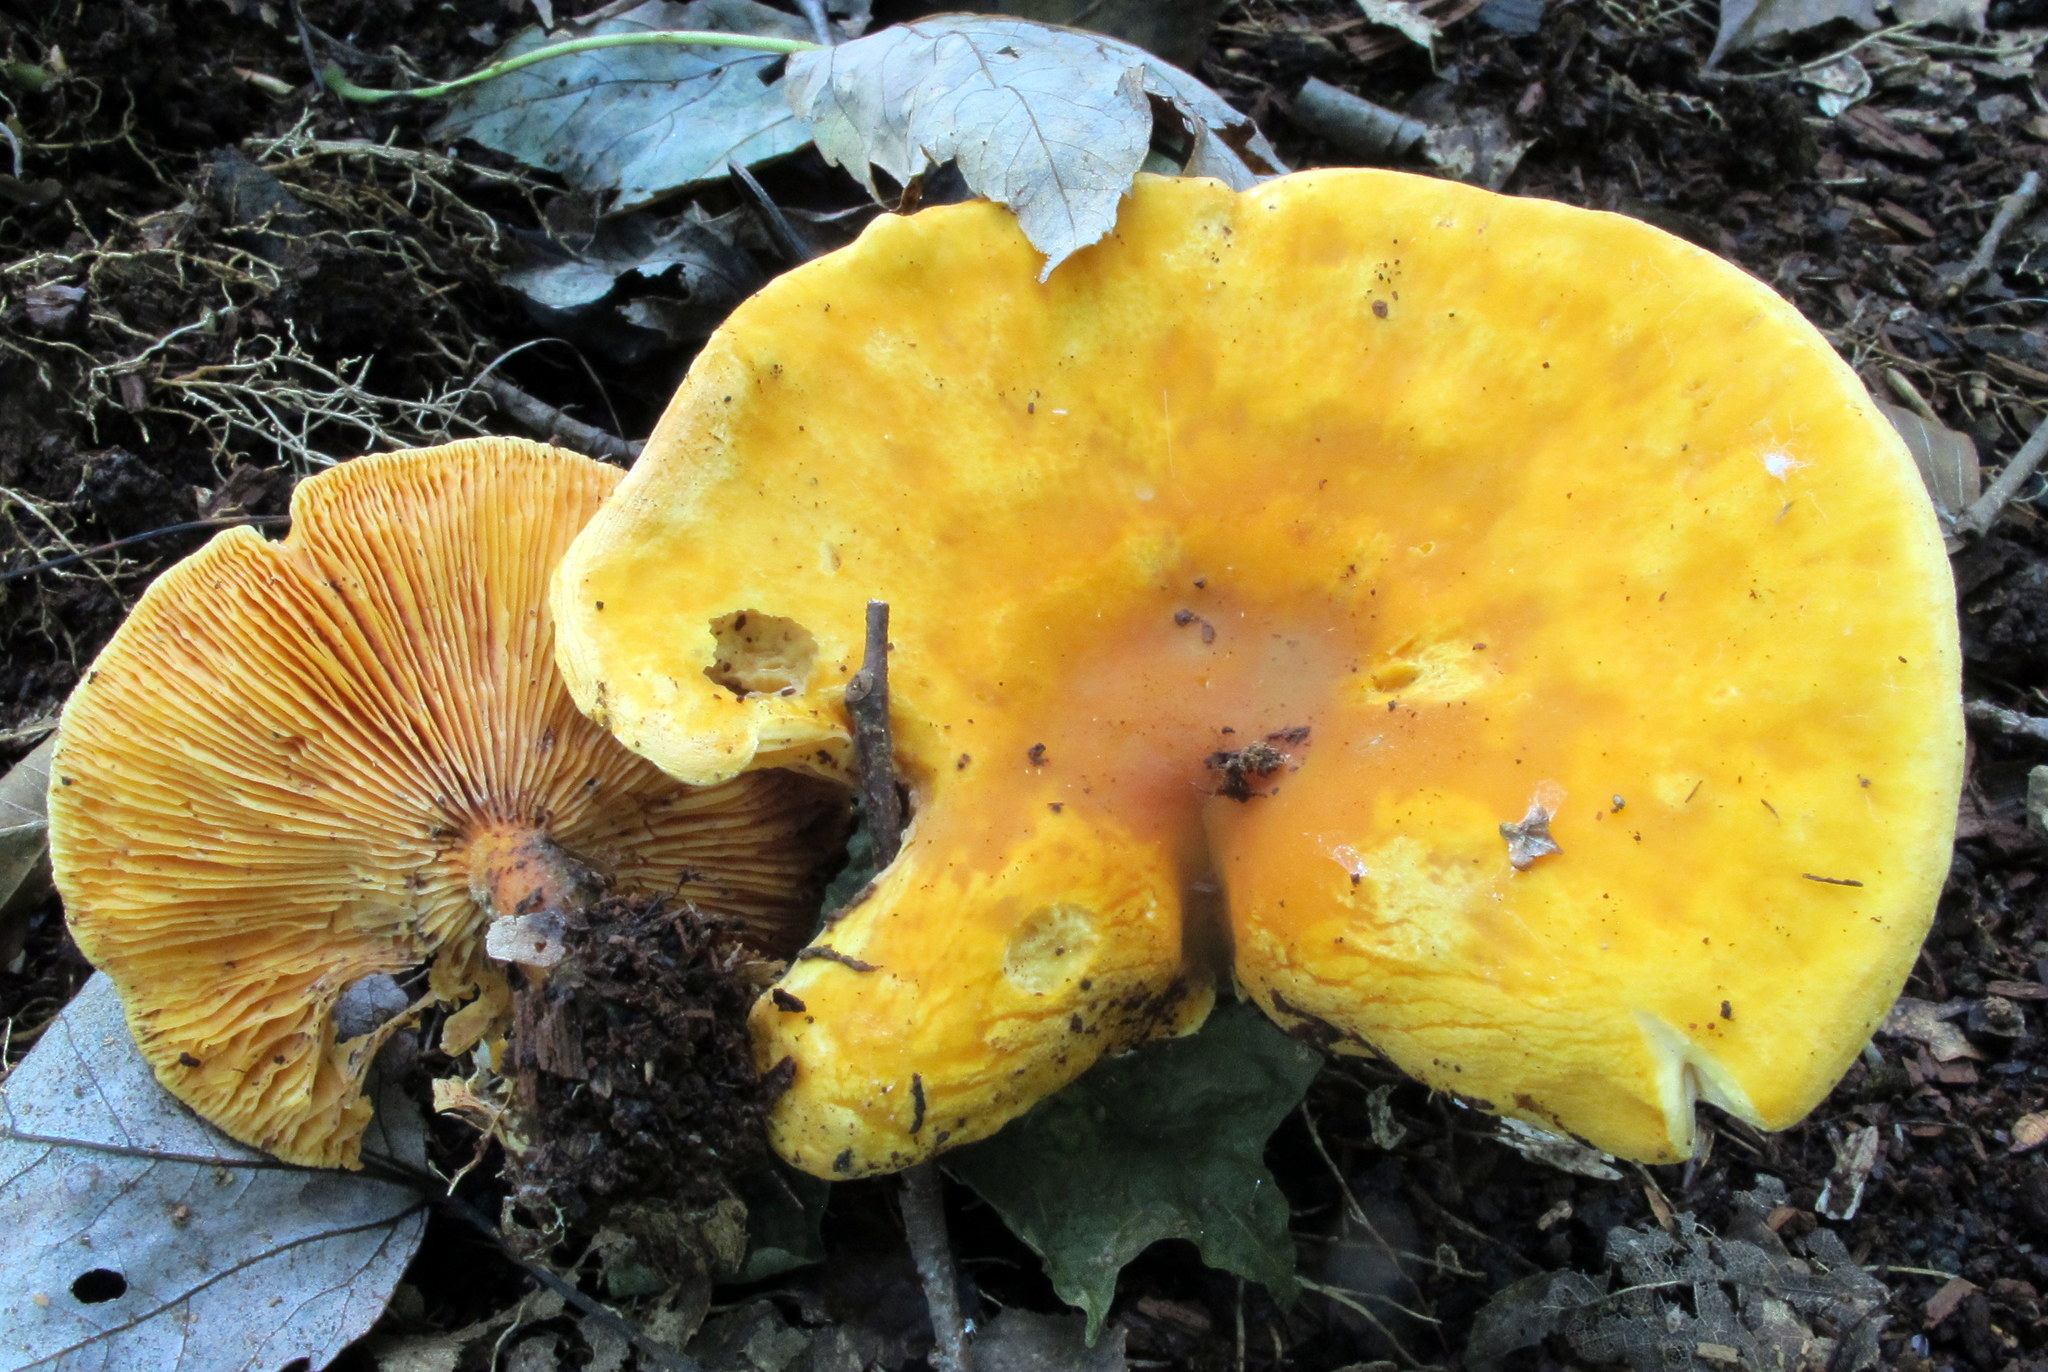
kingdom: Fungi
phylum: Basidiomycota
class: Agaricomycetes
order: Boletales
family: Hygrophoropsidaceae
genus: Hygrophoropsis
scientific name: Hygrophoropsis aurantiaca
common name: False chanterelle
